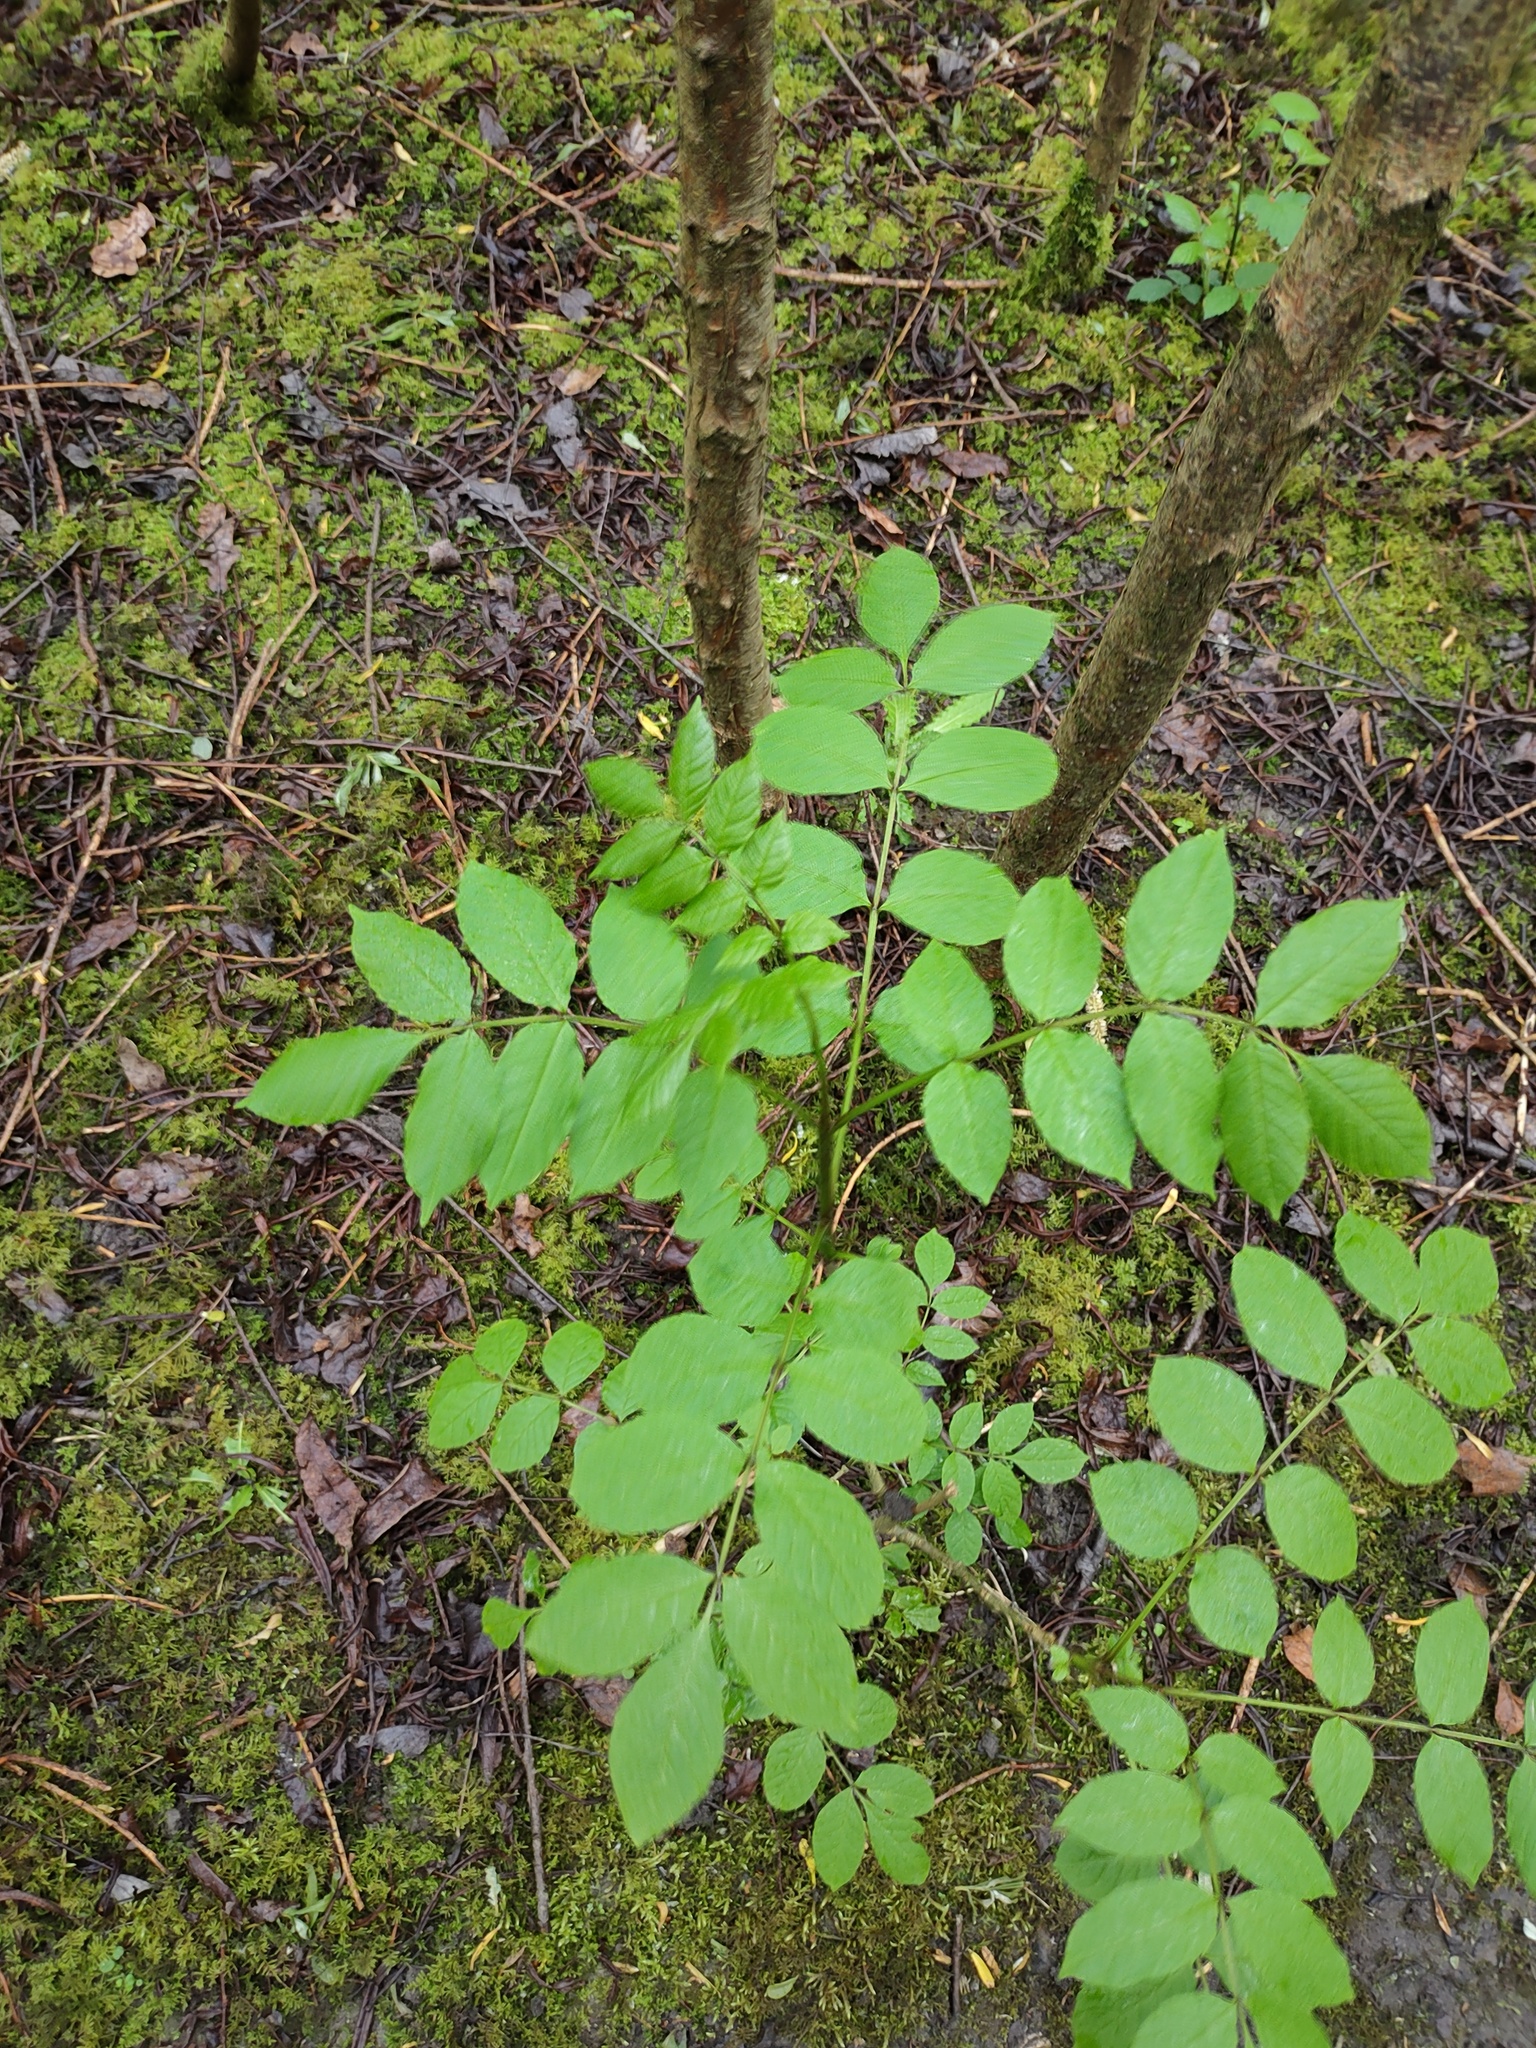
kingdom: Plantae
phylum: Tracheophyta
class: Magnoliopsida
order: Lamiales
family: Oleaceae
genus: Fraxinus
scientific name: Fraxinus excelsior
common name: European ash
